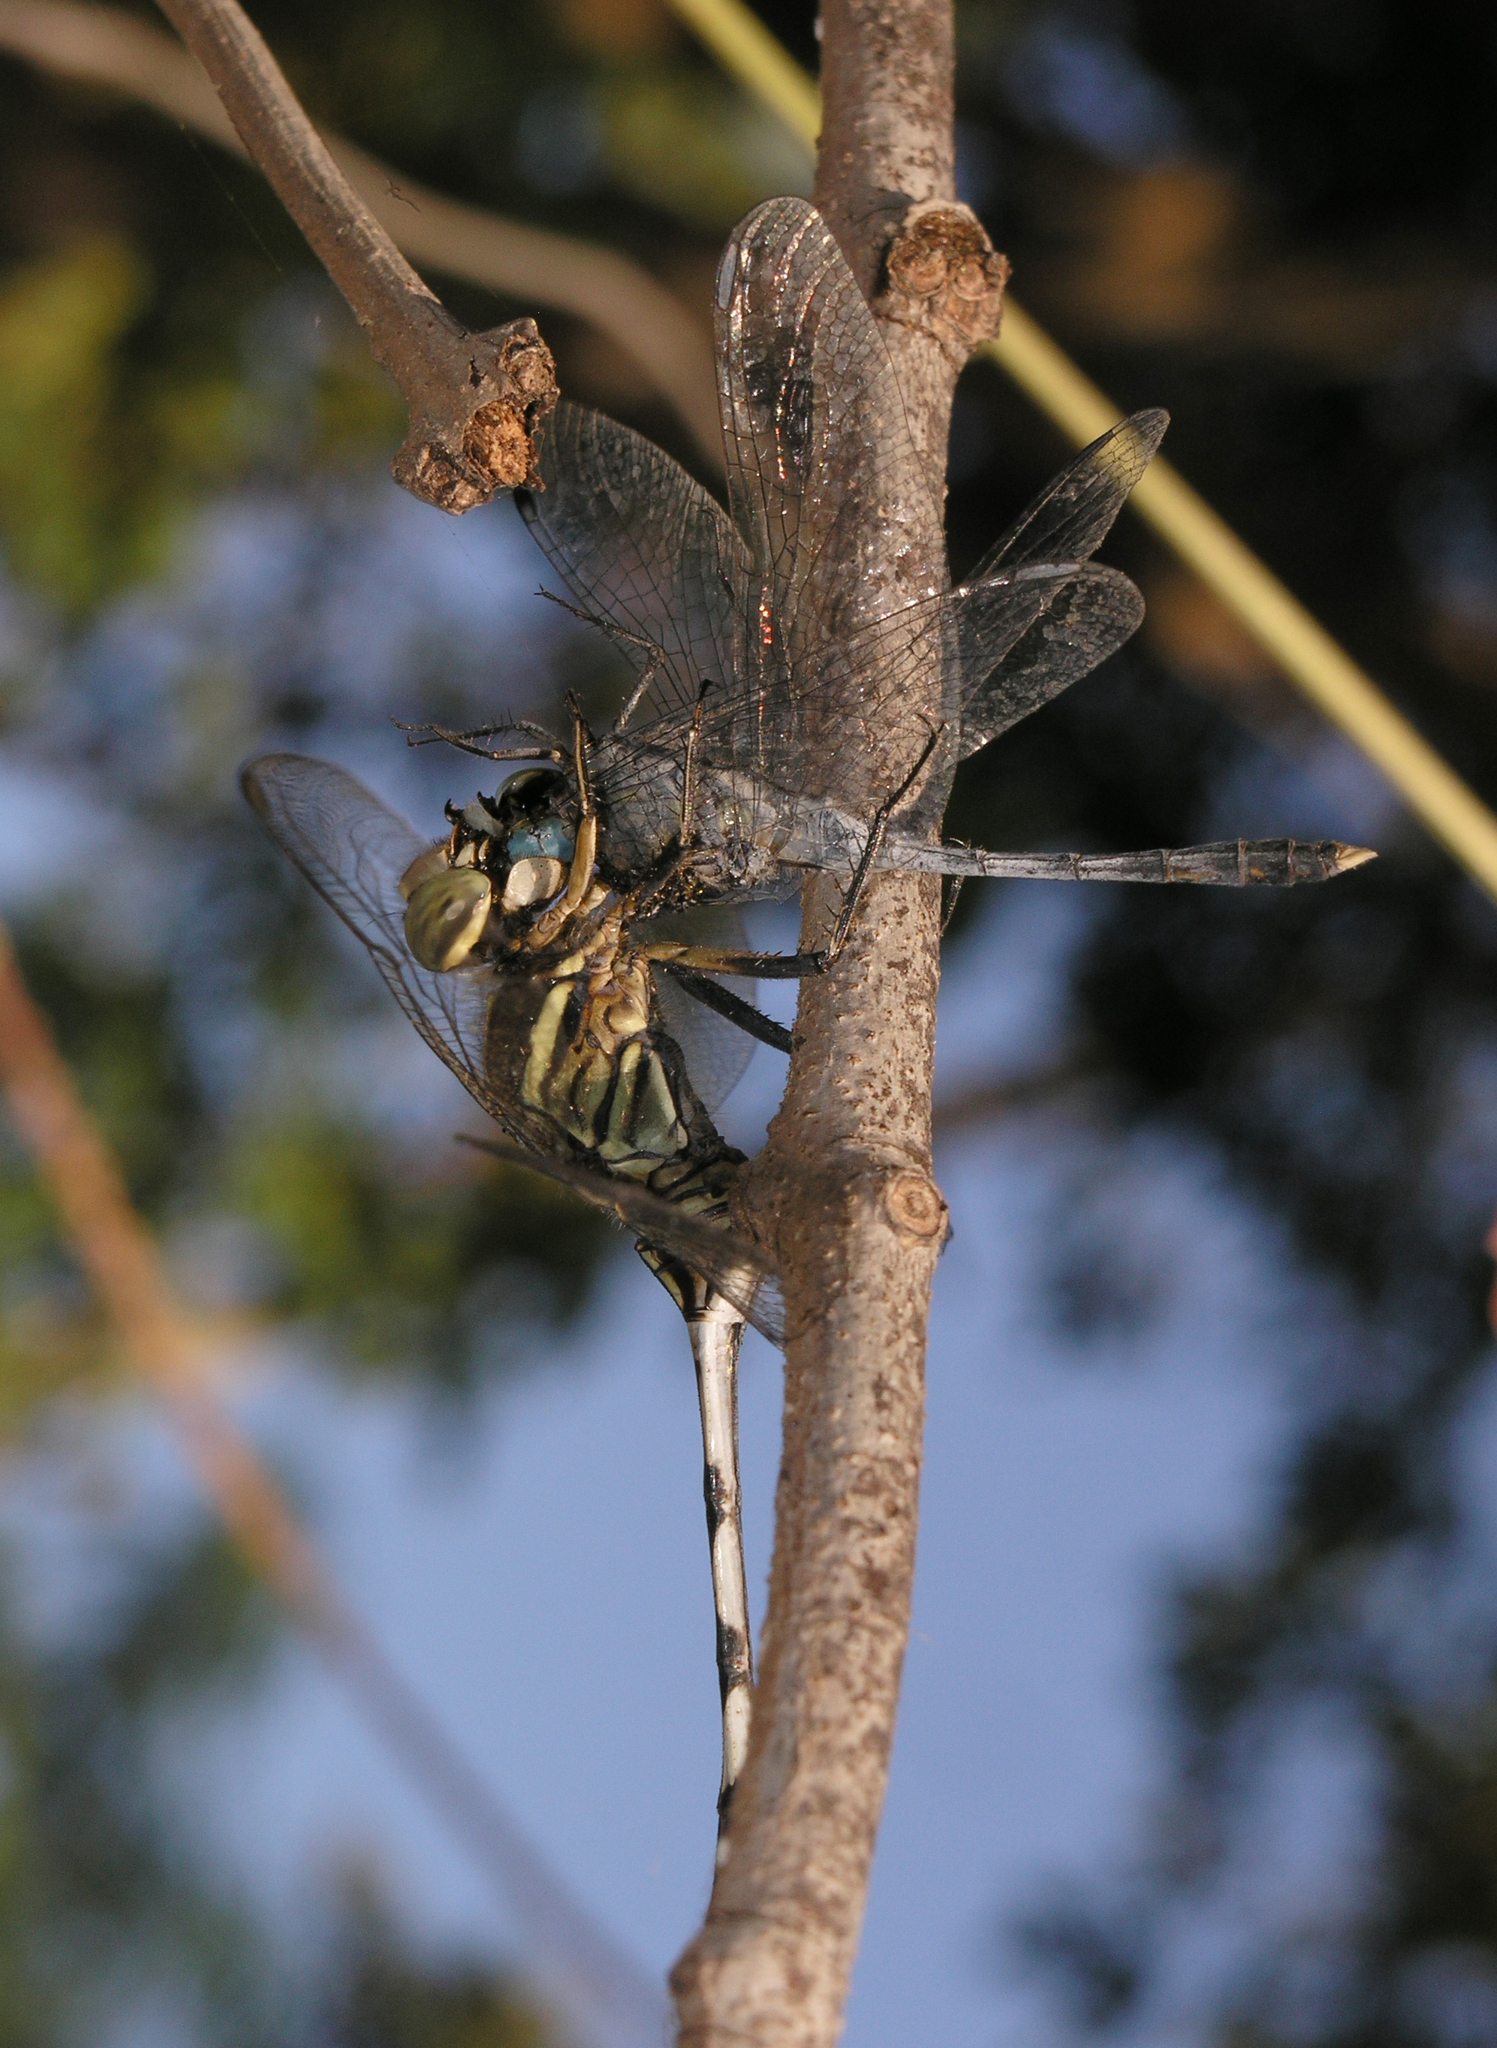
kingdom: Animalia
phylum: Arthropoda
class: Insecta
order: Odonata
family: Libellulidae
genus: Diplacodes
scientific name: Diplacodes trivialis
